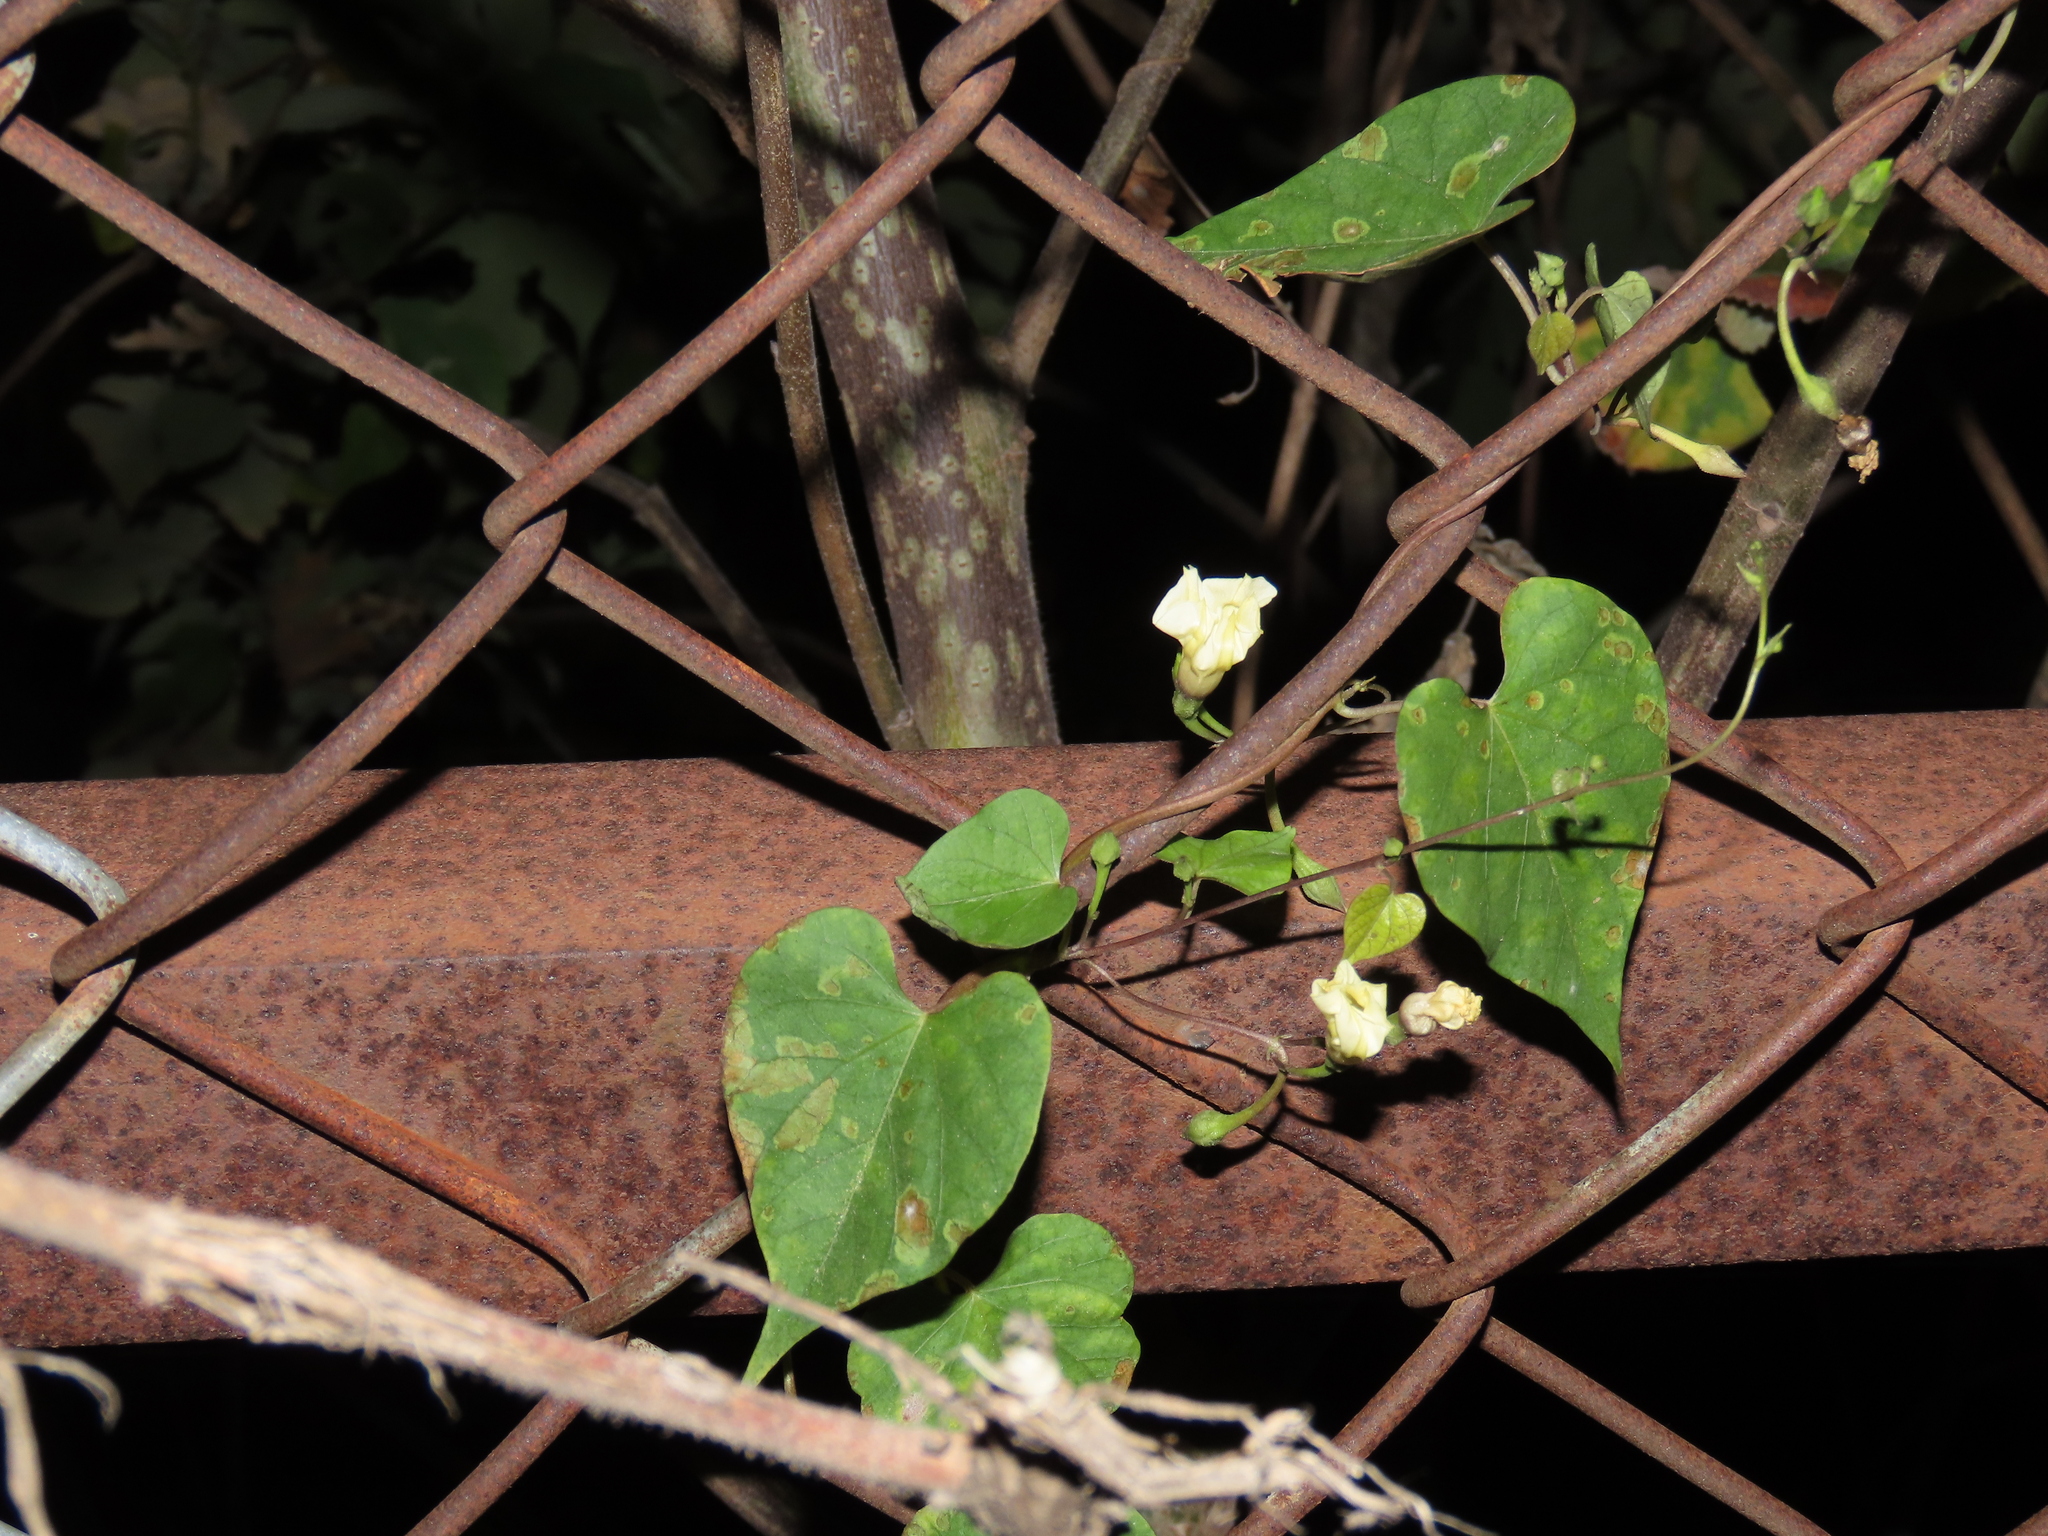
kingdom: Plantae
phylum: Tracheophyta
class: Magnoliopsida
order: Solanales
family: Convolvulaceae
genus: Ipomoea
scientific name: Ipomoea obscura
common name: Obscure morning-glory
